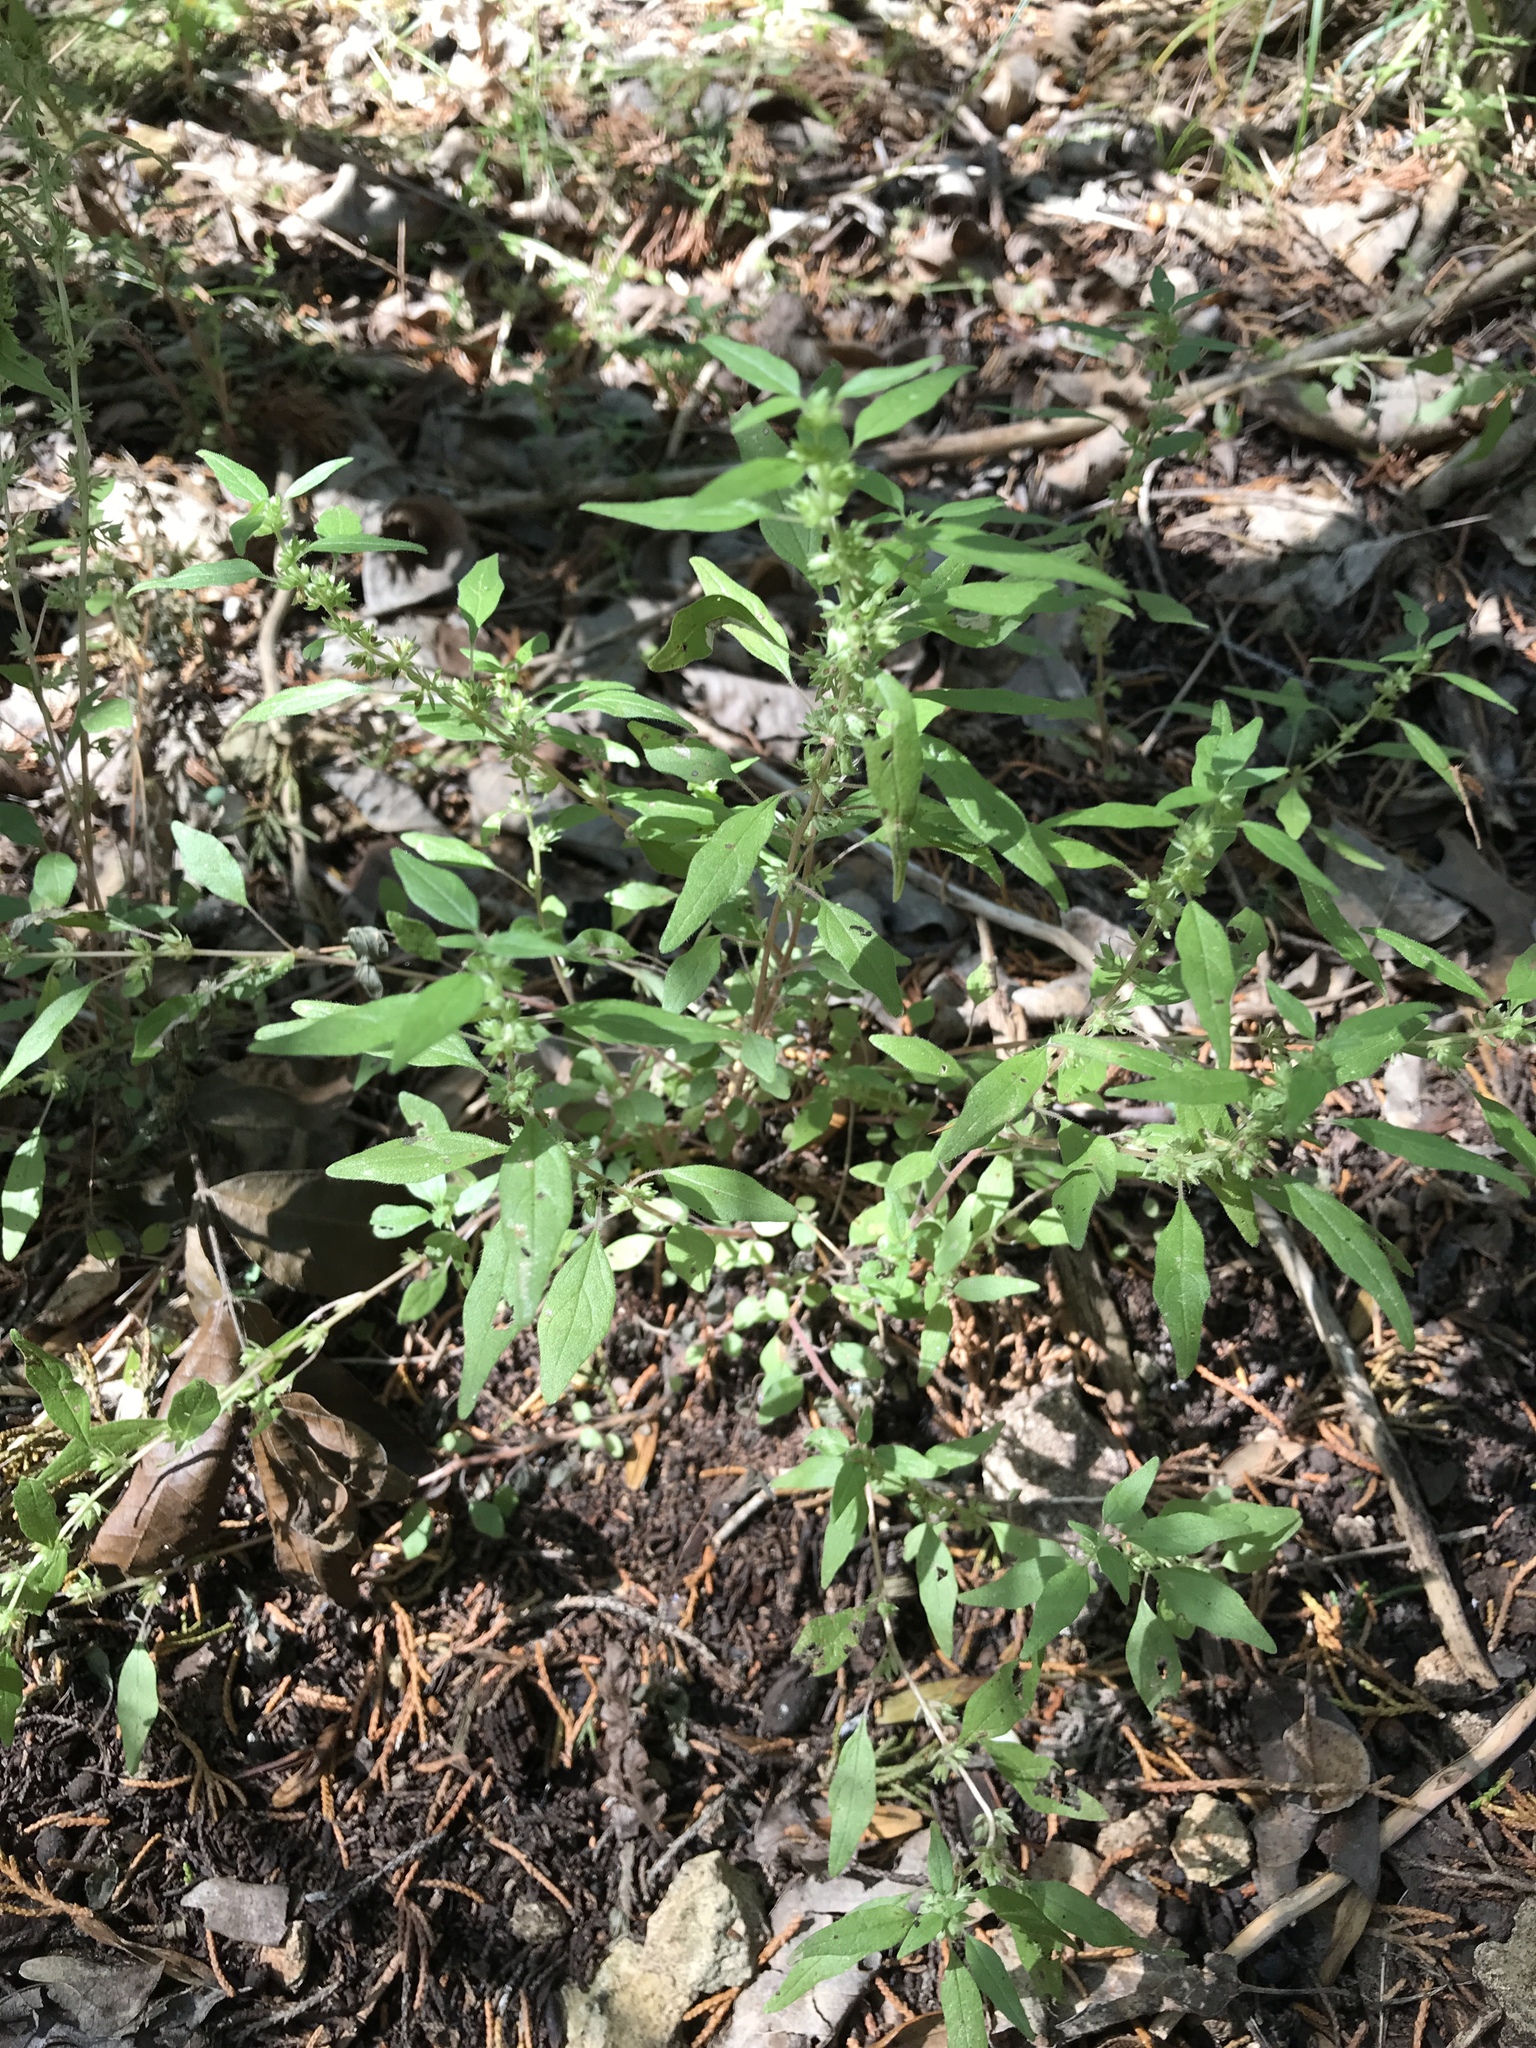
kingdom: Plantae
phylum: Tracheophyta
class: Magnoliopsida
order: Rosales
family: Urticaceae
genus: Parietaria
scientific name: Parietaria pensylvanica
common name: Pennsylvania pellitory
